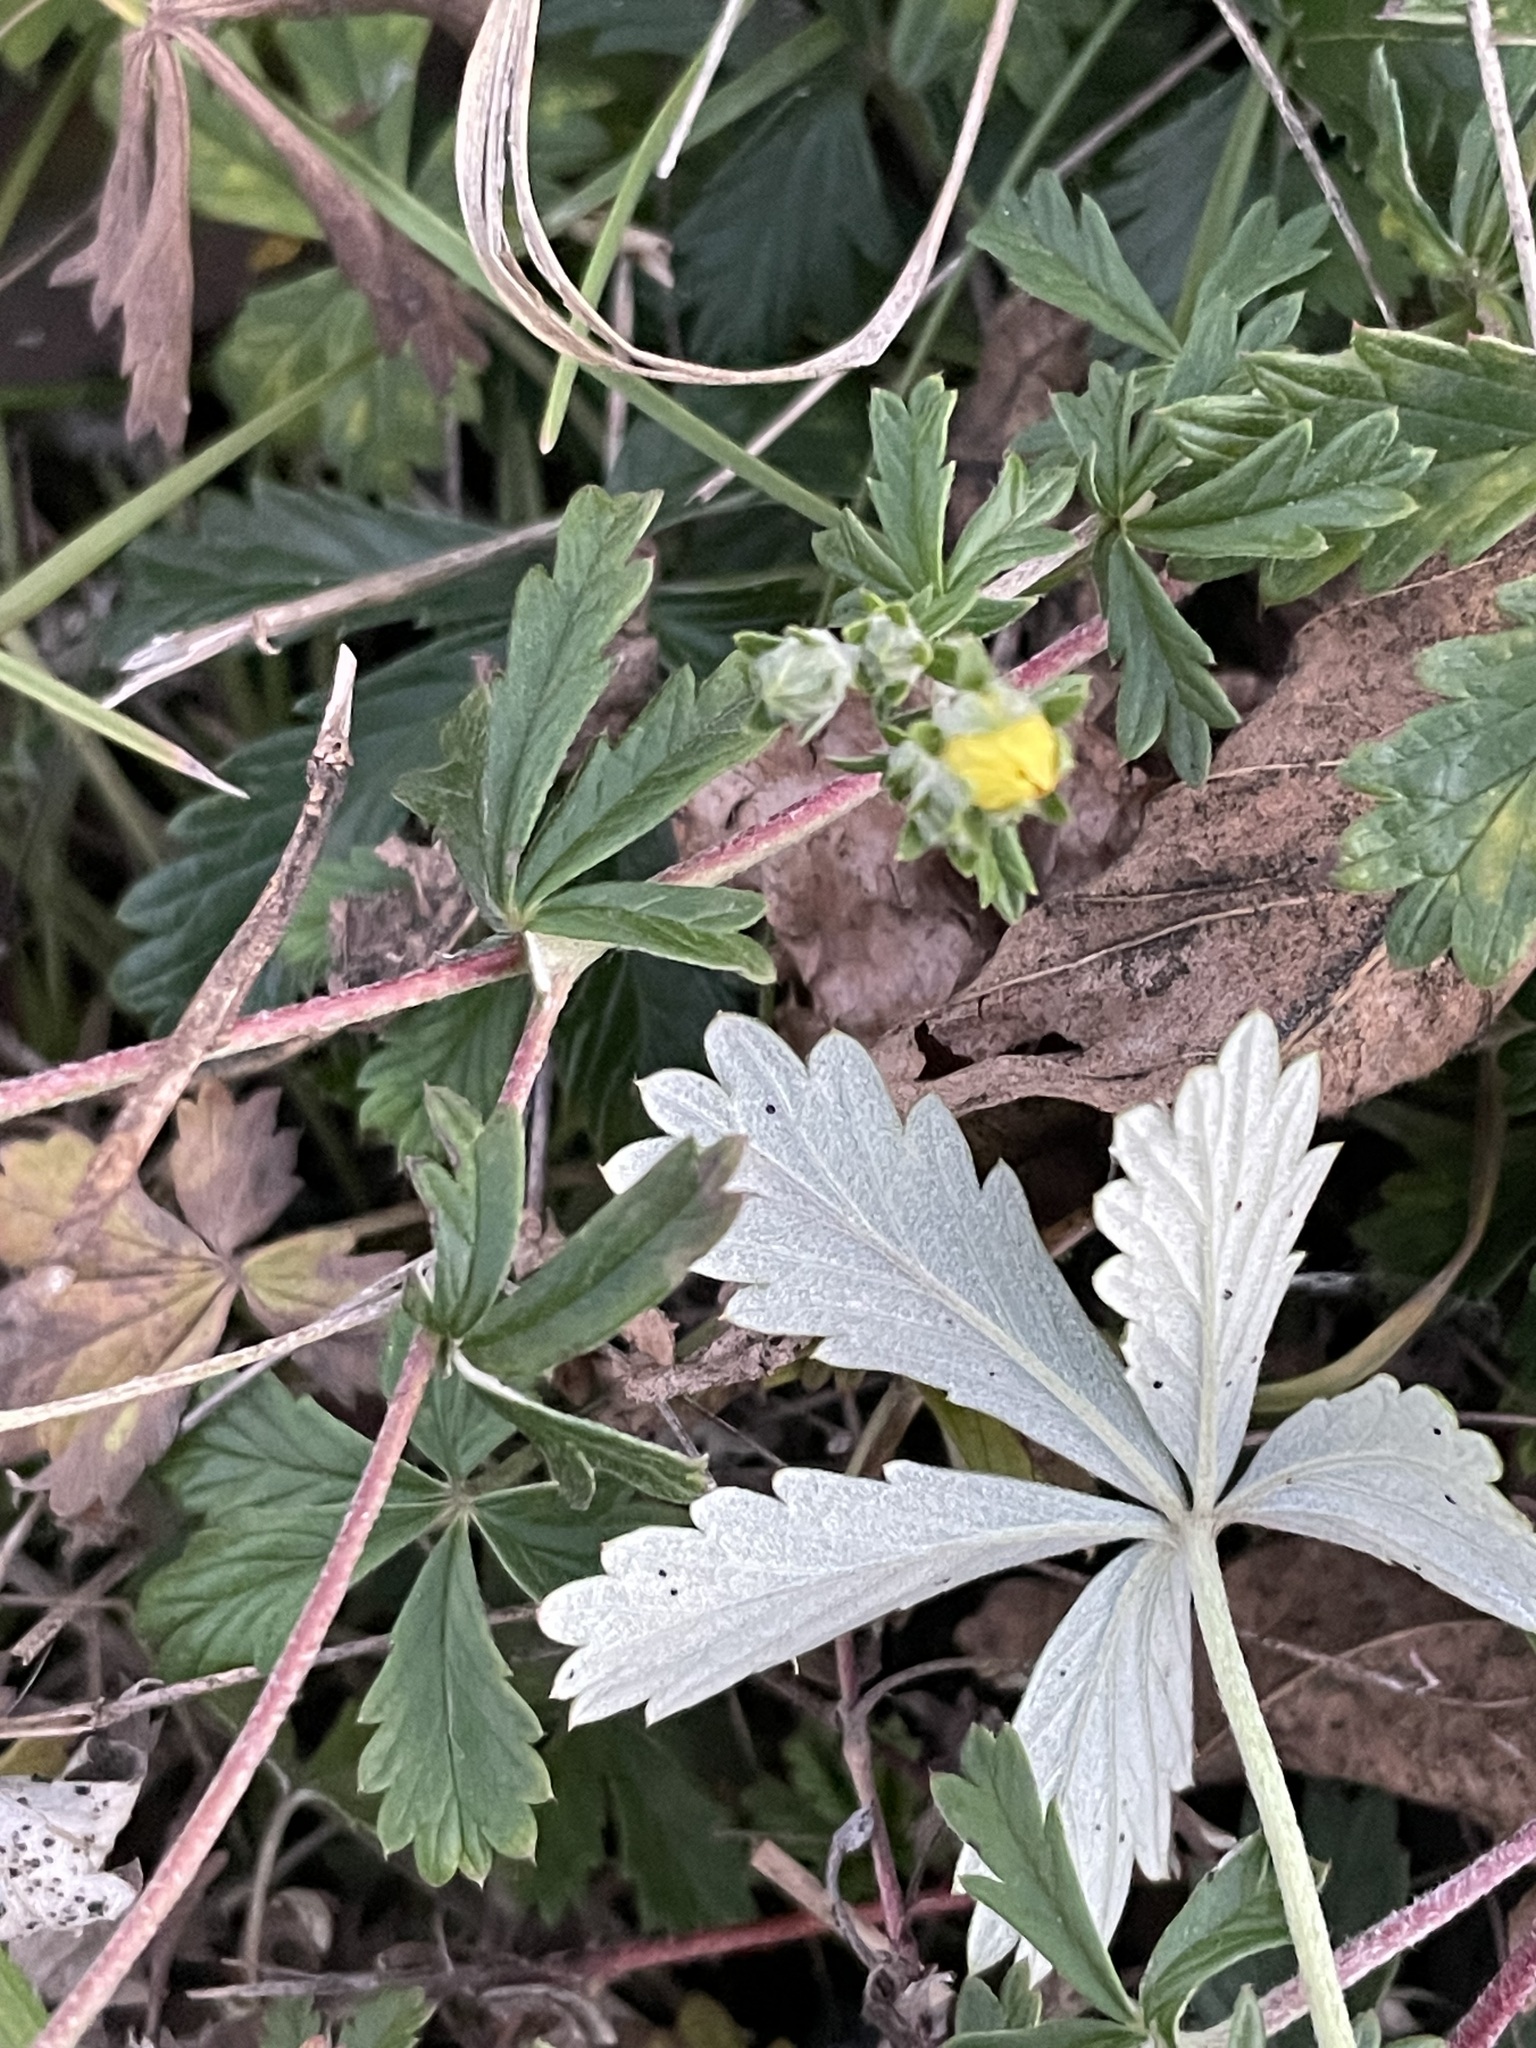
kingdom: Plantae
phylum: Tracheophyta
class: Magnoliopsida
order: Rosales
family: Rosaceae
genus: Potentilla
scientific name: Potentilla argentea
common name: Hoary cinquefoil
